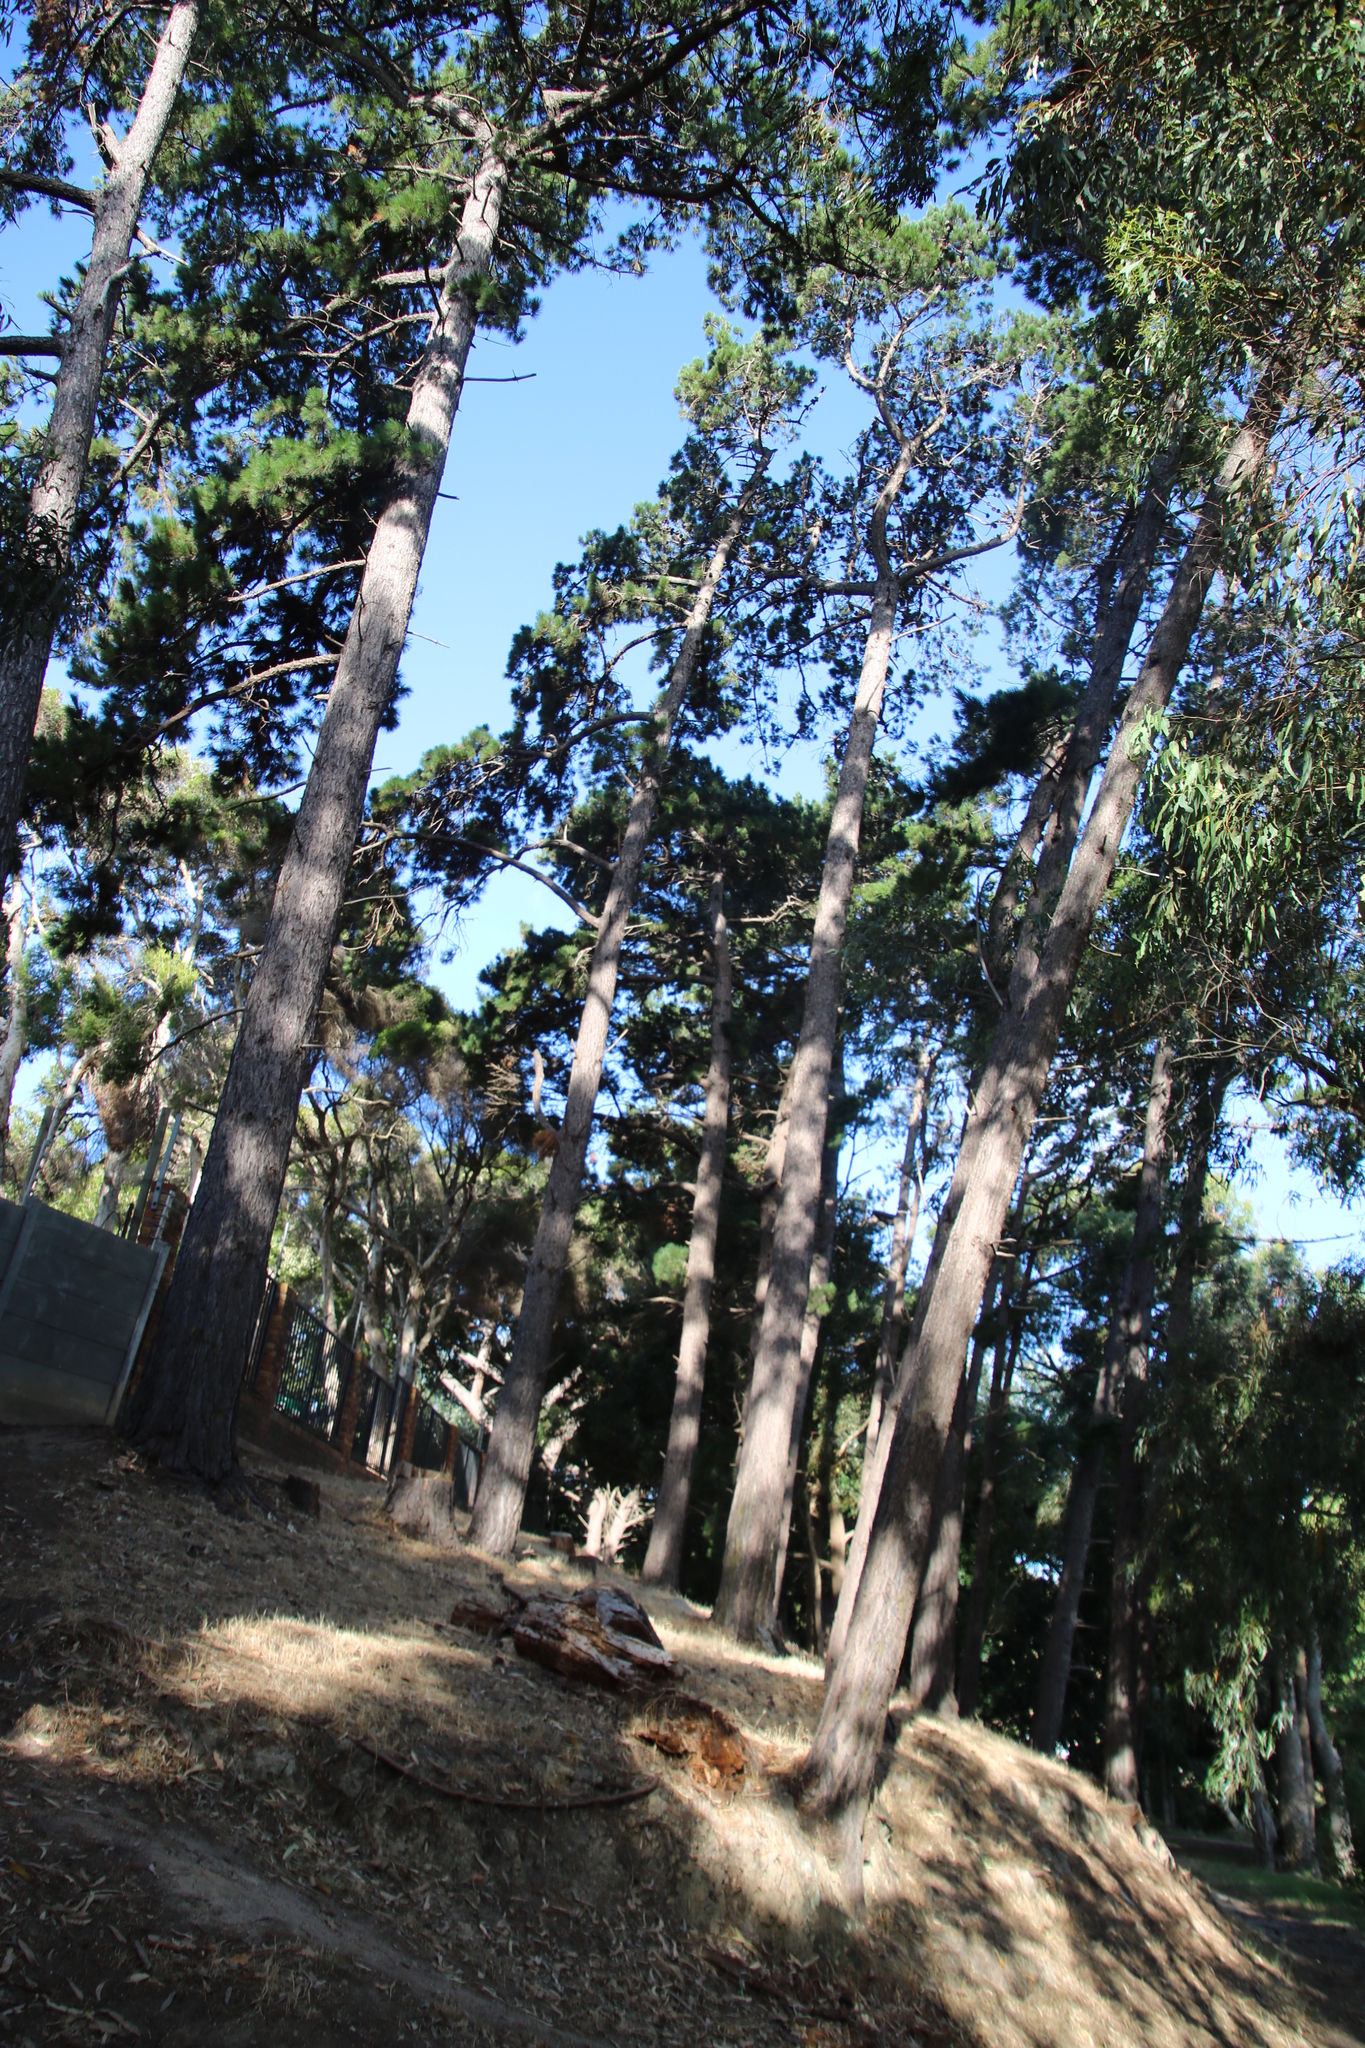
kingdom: Plantae
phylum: Tracheophyta
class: Pinopsida
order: Pinales
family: Pinaceae
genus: Pinus
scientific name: Pinus radiata
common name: Monterey pine
